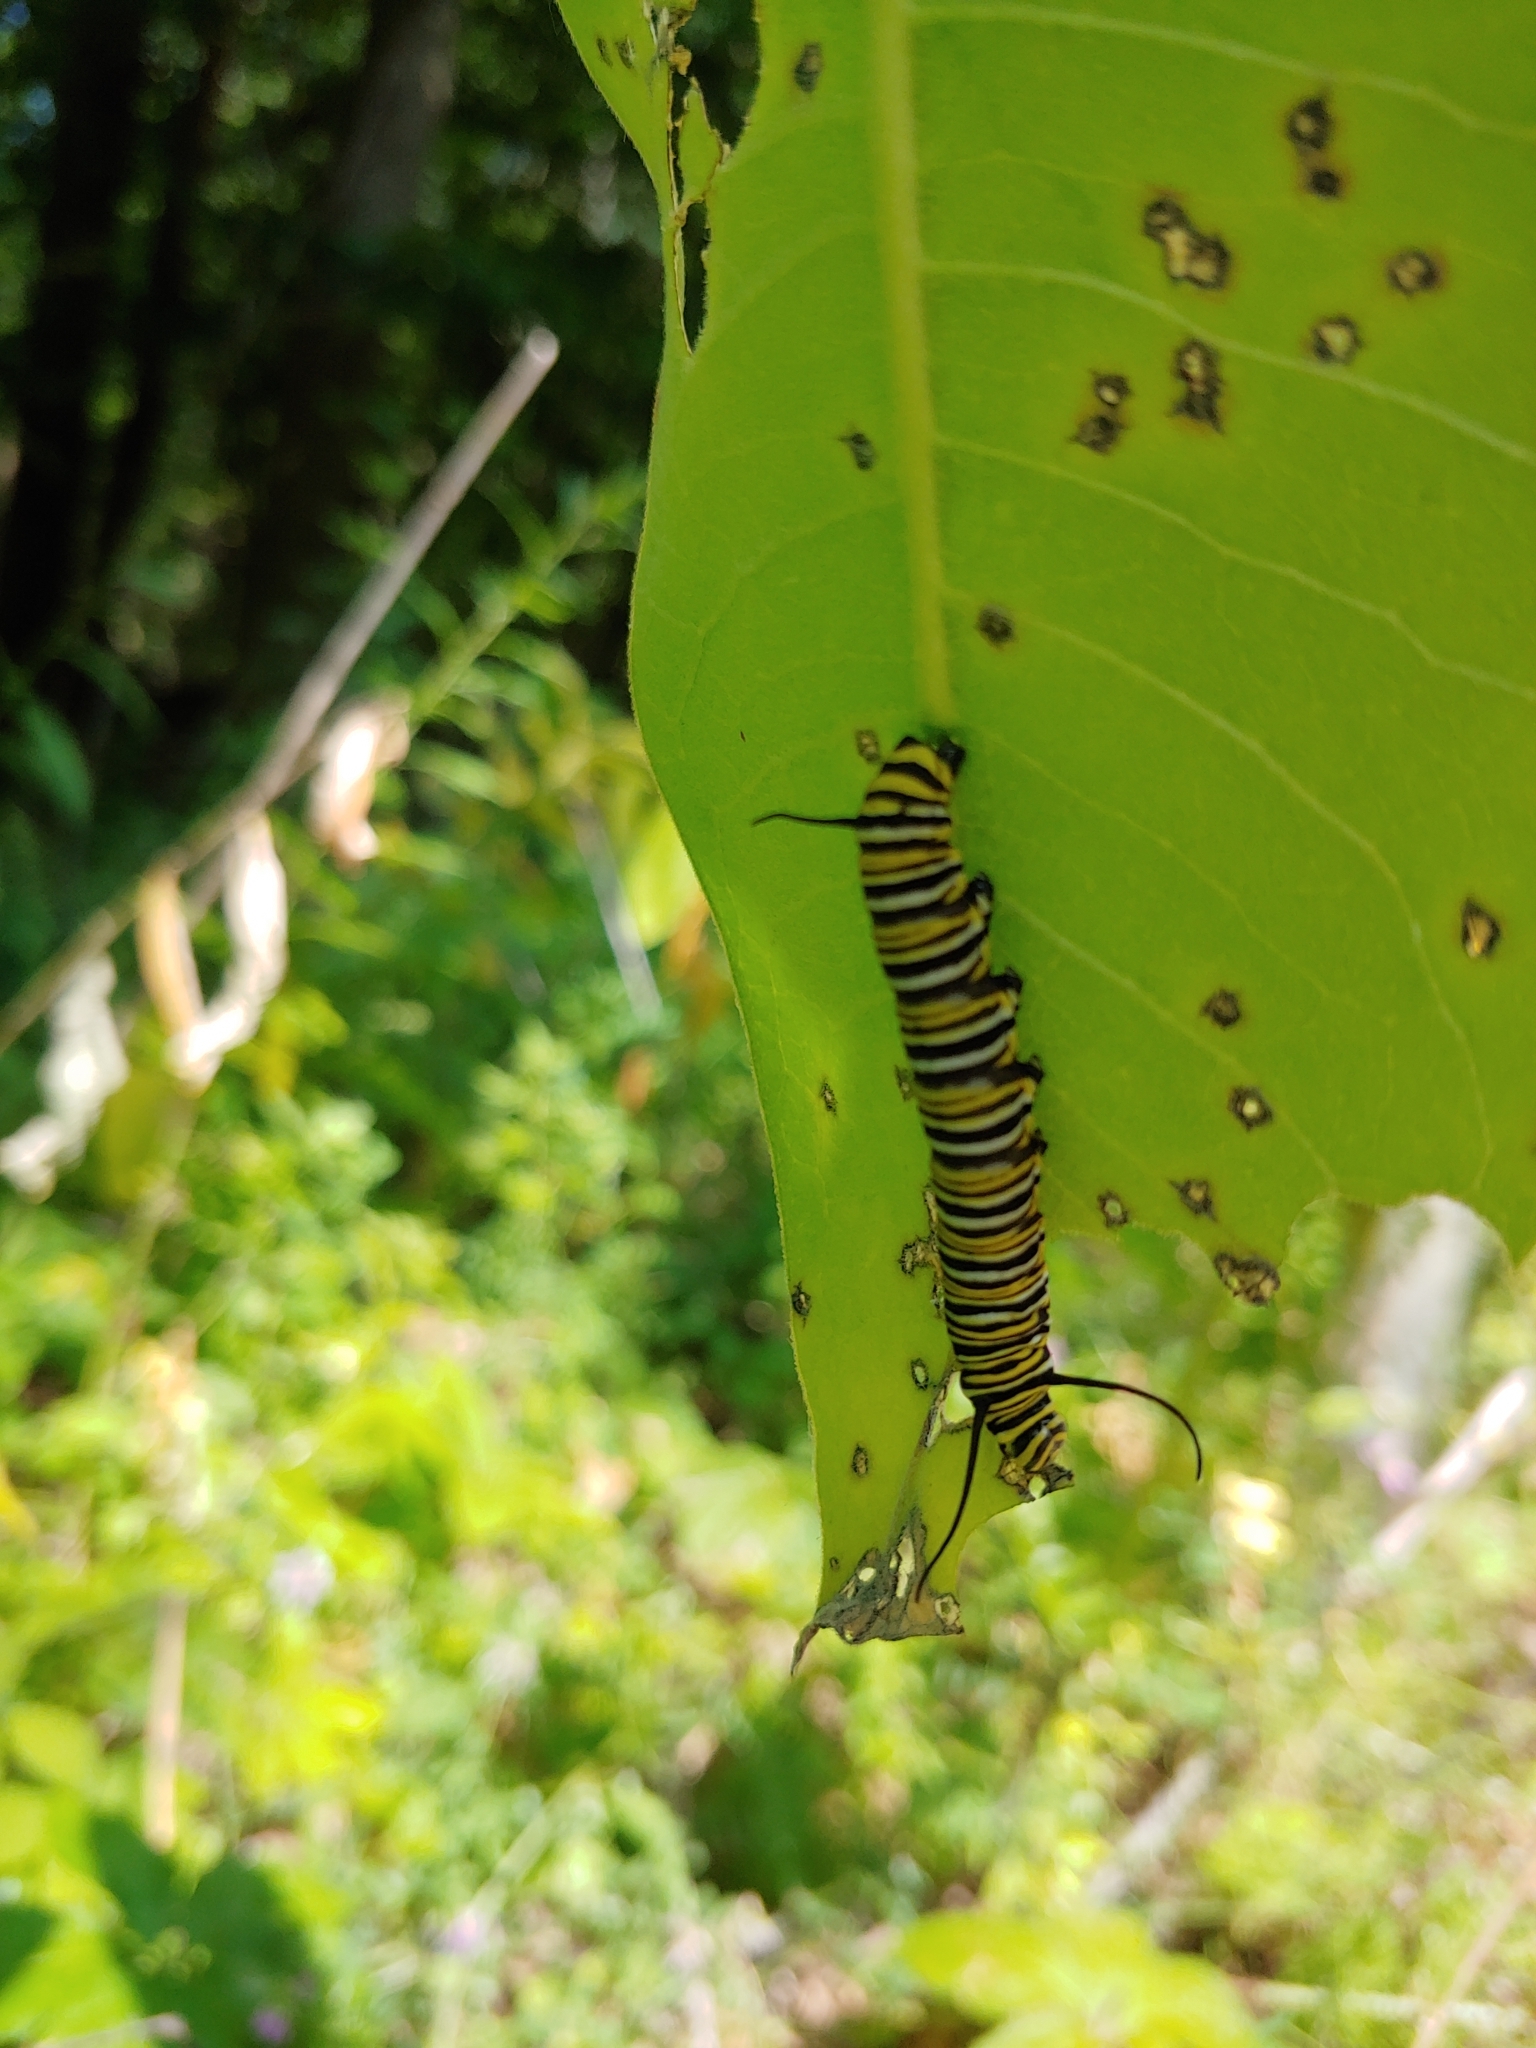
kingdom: Animalia
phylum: Arthropoda
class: Insecta
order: Lepidoptera
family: Nymphalidae
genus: Danaus
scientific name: Danaus plexippus
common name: Monarch
